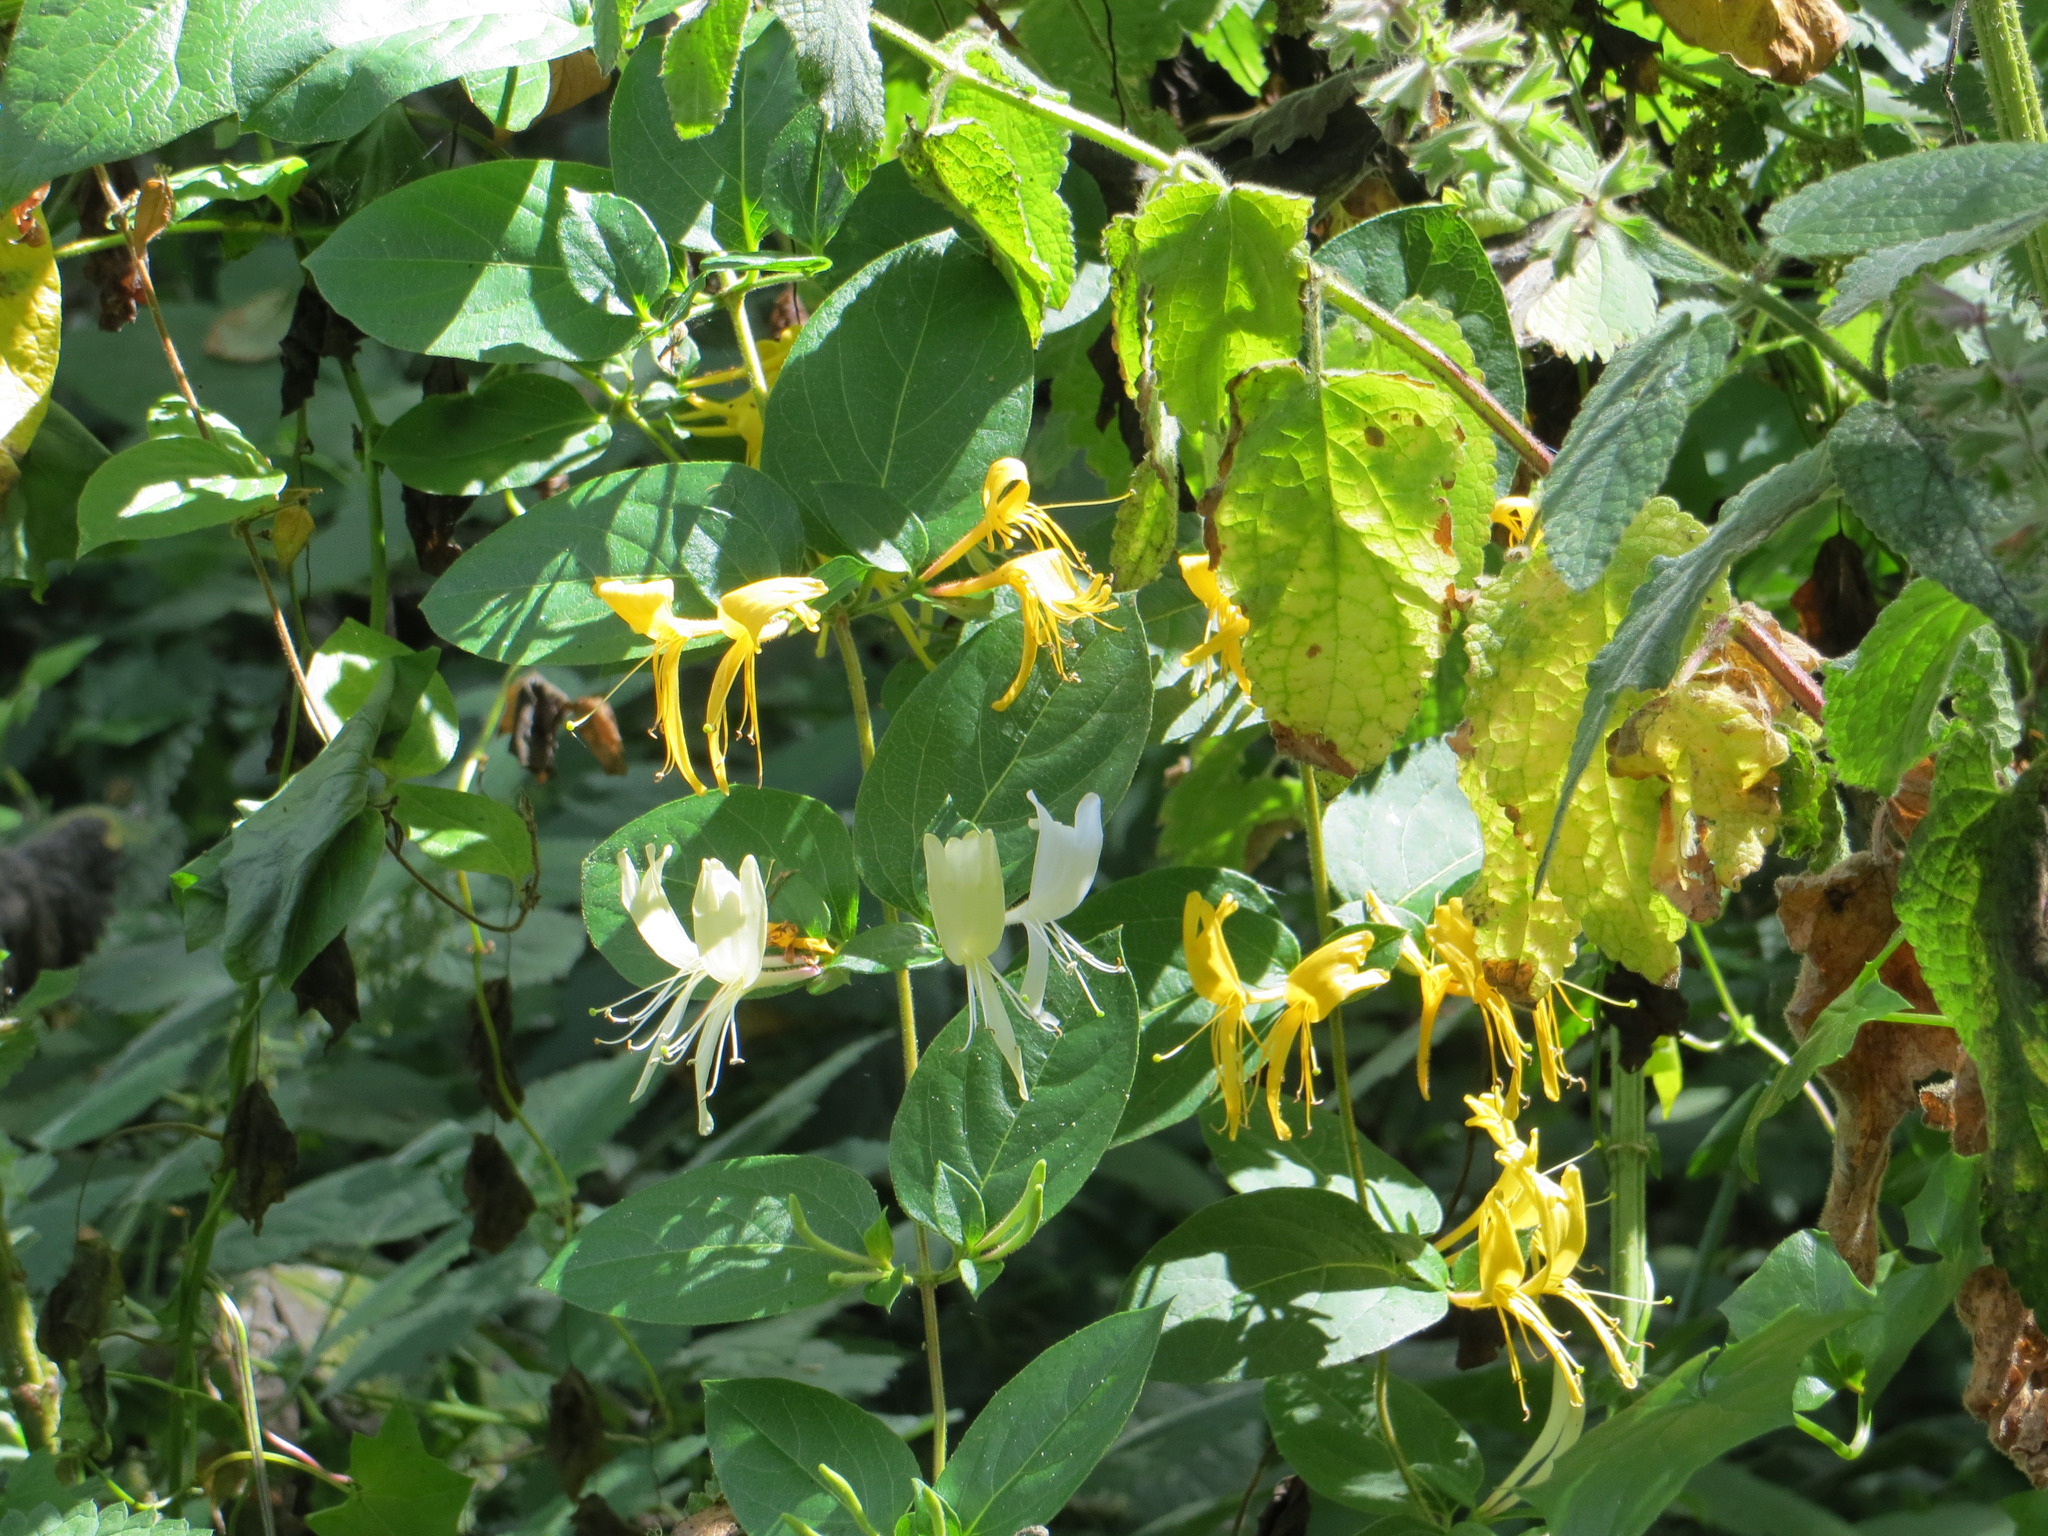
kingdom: Plantae
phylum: Tracheophyta
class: Magnoliopsida
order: Dipsacales
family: Caprifoliaceae
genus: Lonicera
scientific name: Lonicera japonica
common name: Japanese honeysuckle
